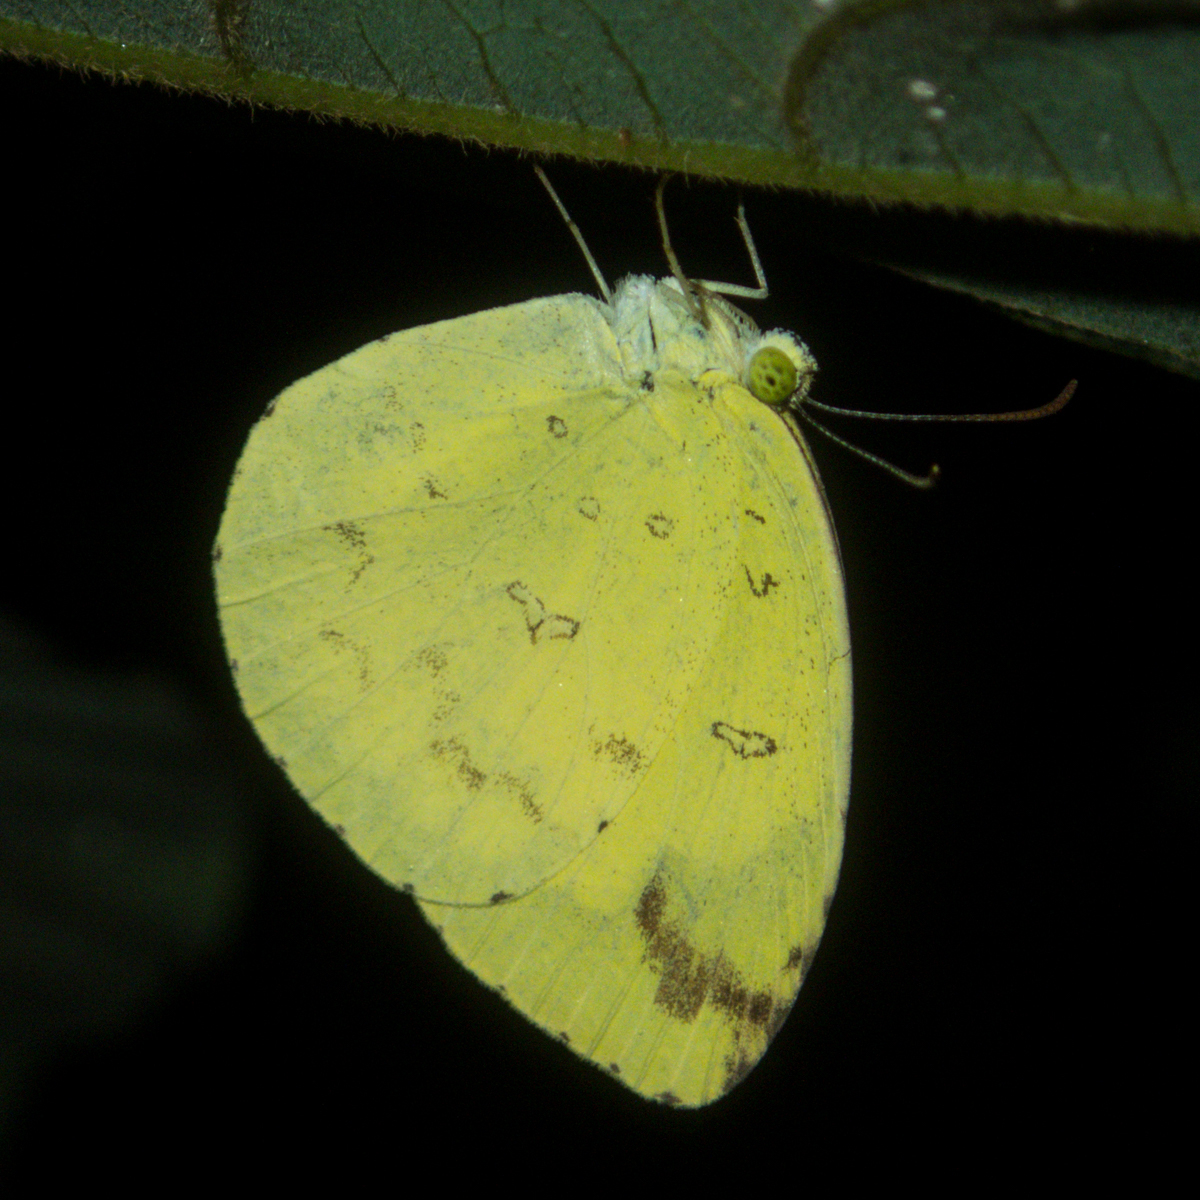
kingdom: Animalia
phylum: Arthropoda
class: Insecta
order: Lepidoptera
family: Pieridae
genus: Eurema
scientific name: Eurema simulatrix
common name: Hill grass yellow
